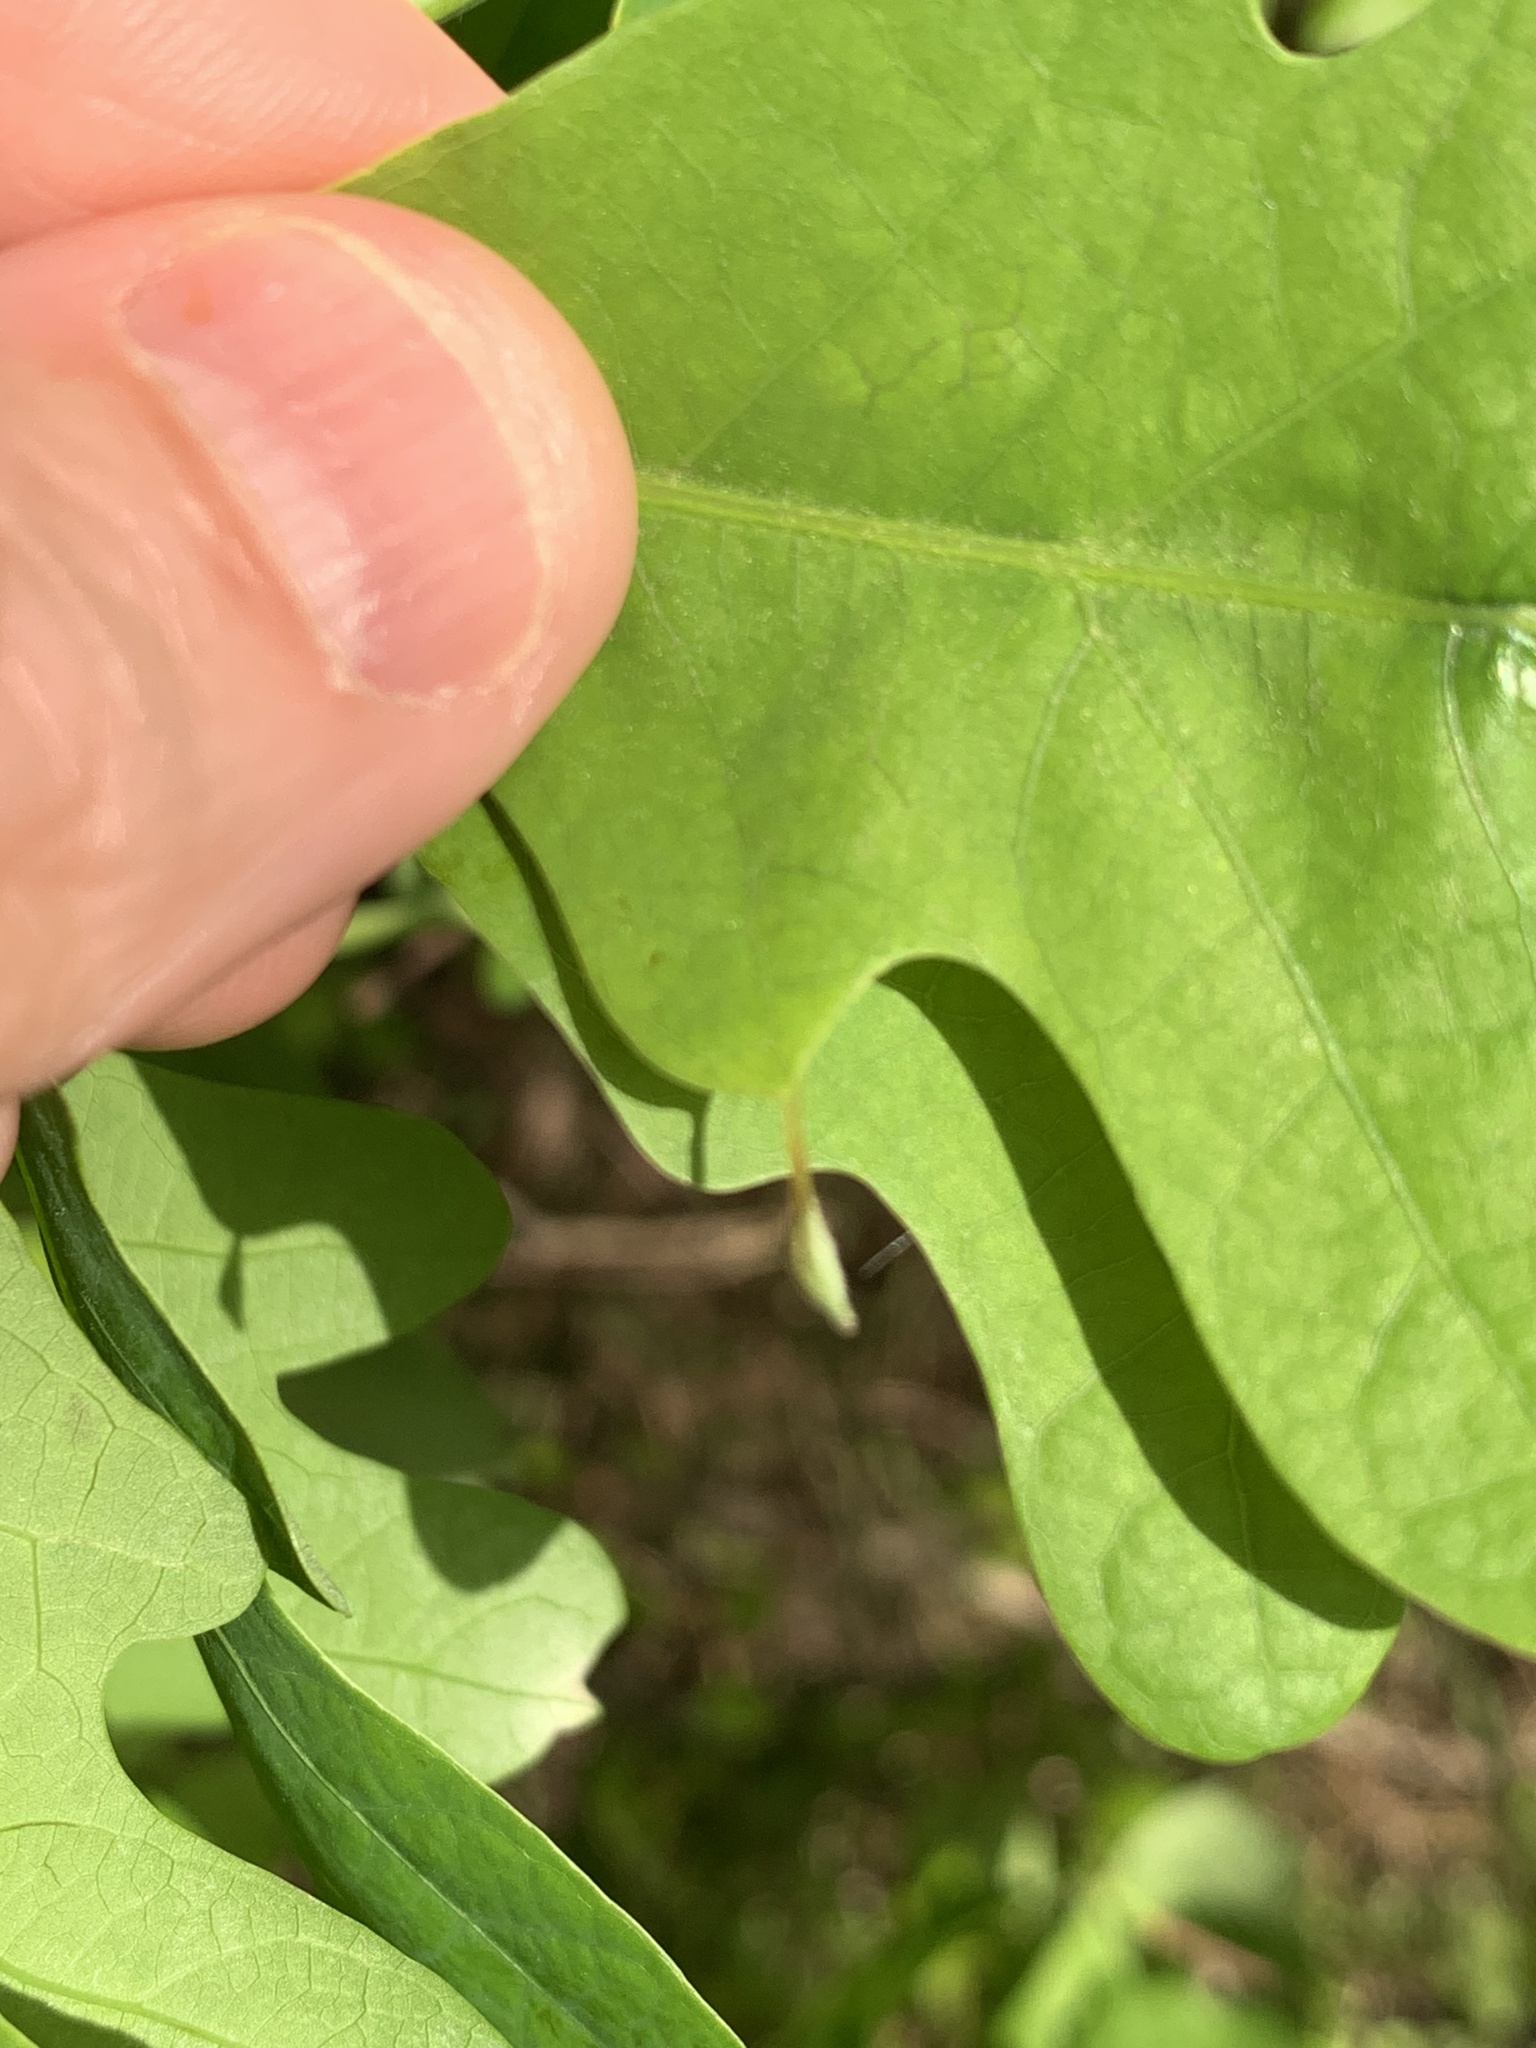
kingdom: Animalia
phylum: Arthropoda
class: Insecta
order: Hymenoptera
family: Cynipidae
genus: Andricus
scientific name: Andricus
